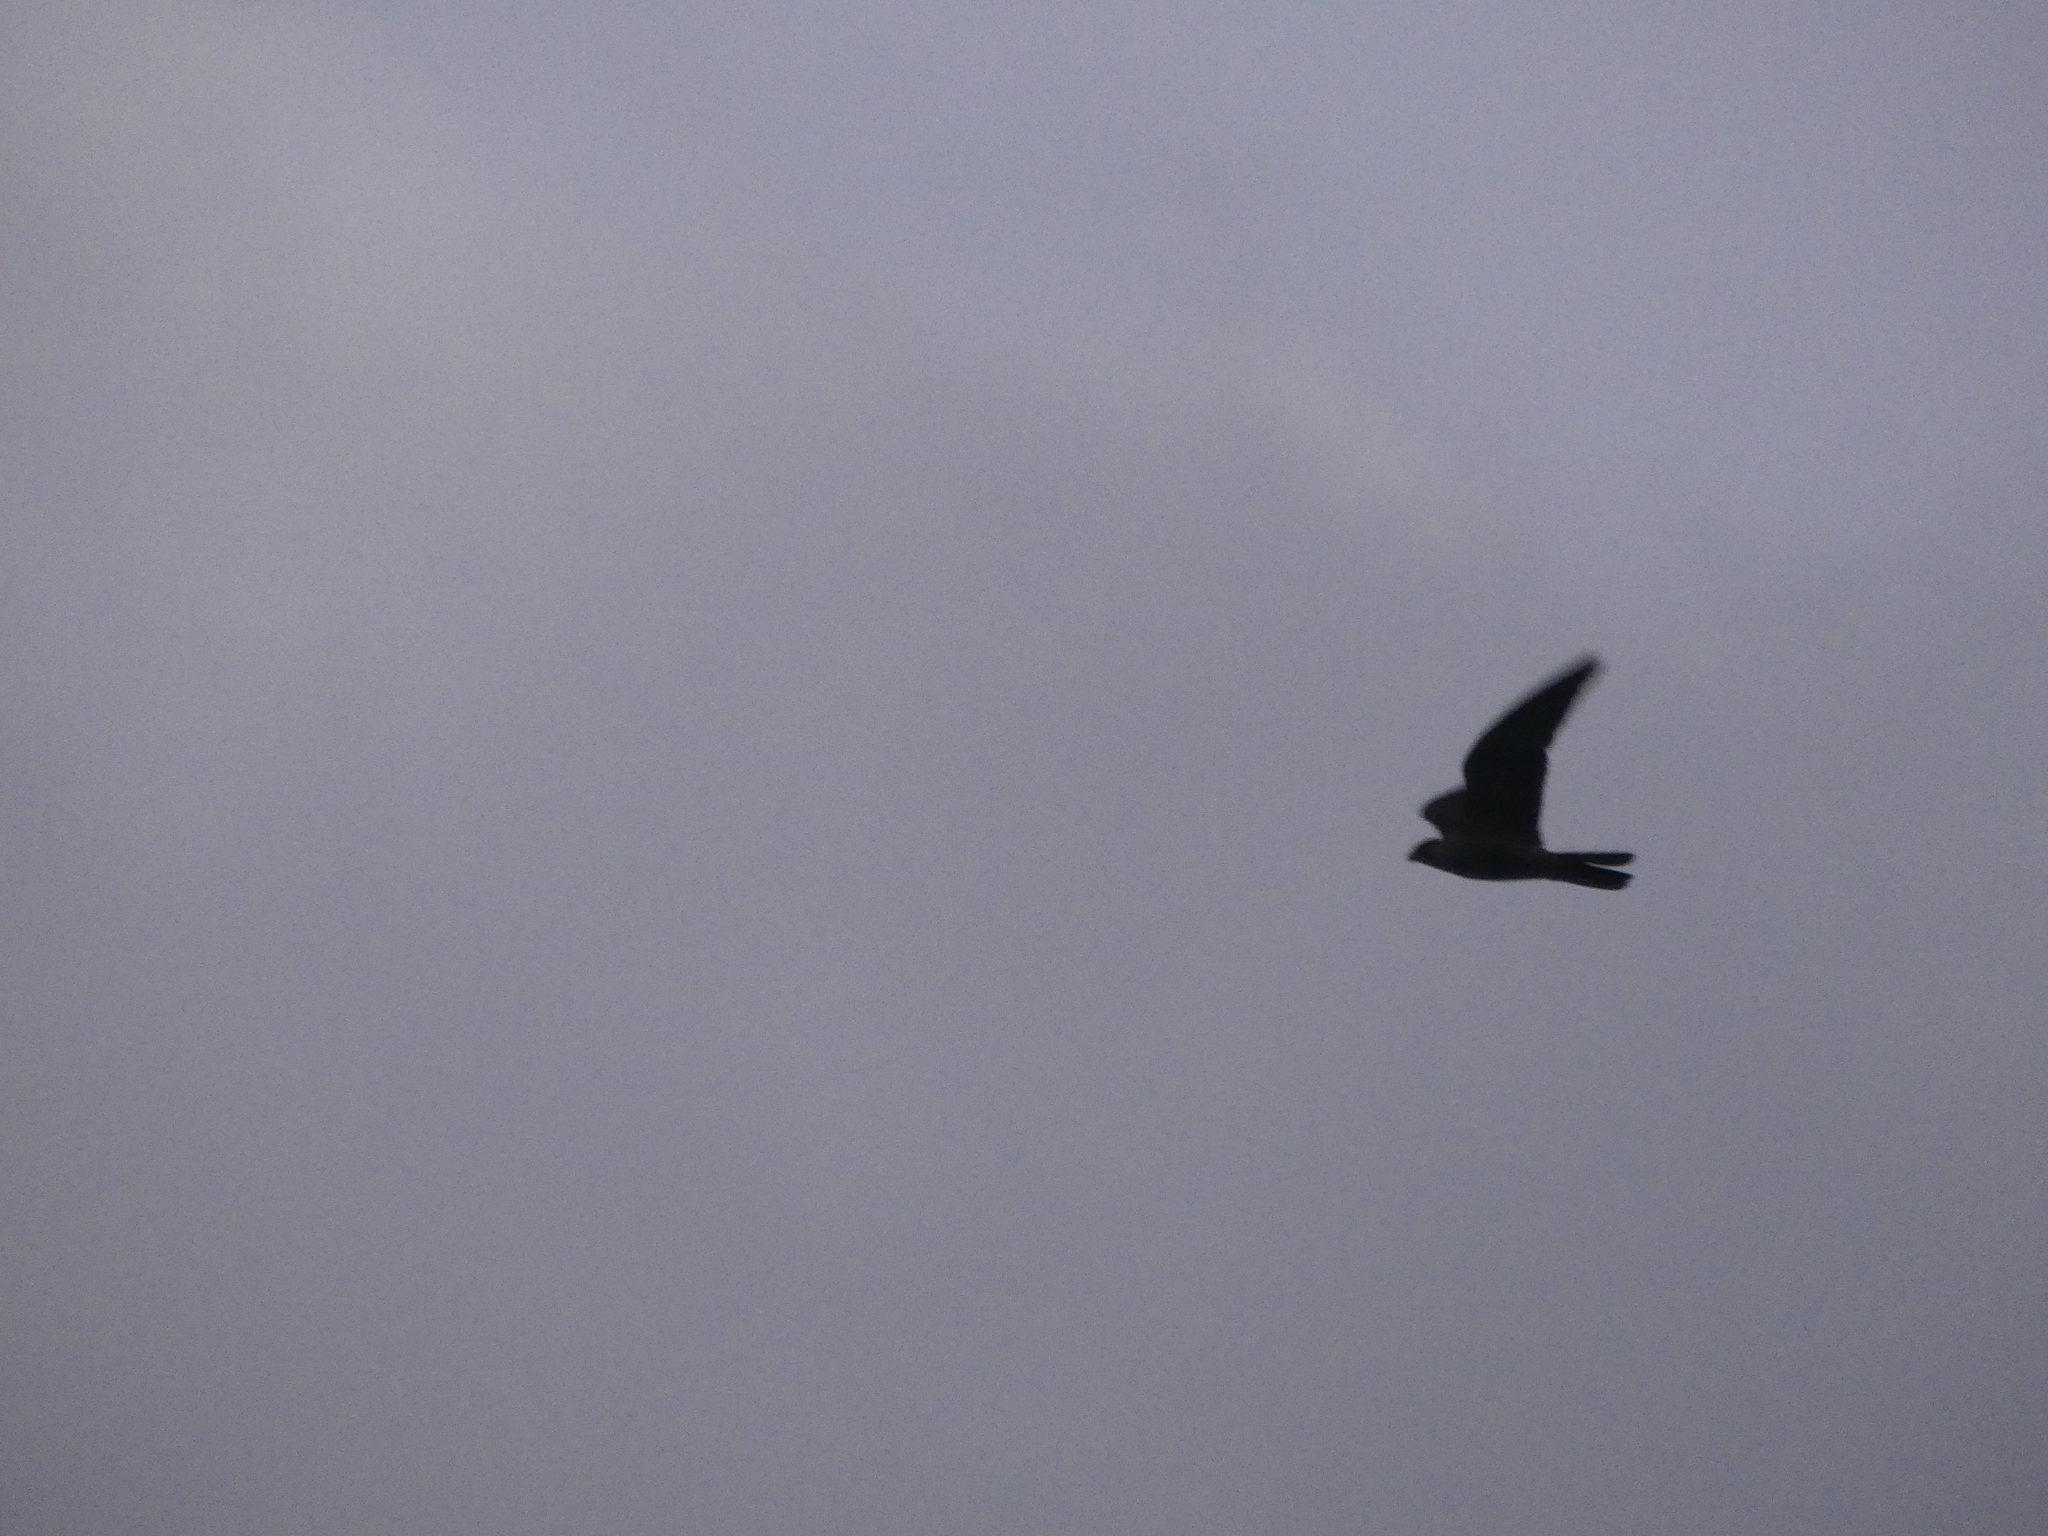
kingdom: Animalia
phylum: Chordata
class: Aves
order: Falconiformes
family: Falconidae
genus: Falco
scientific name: Falco peregrinus
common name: Peregrine falcon
